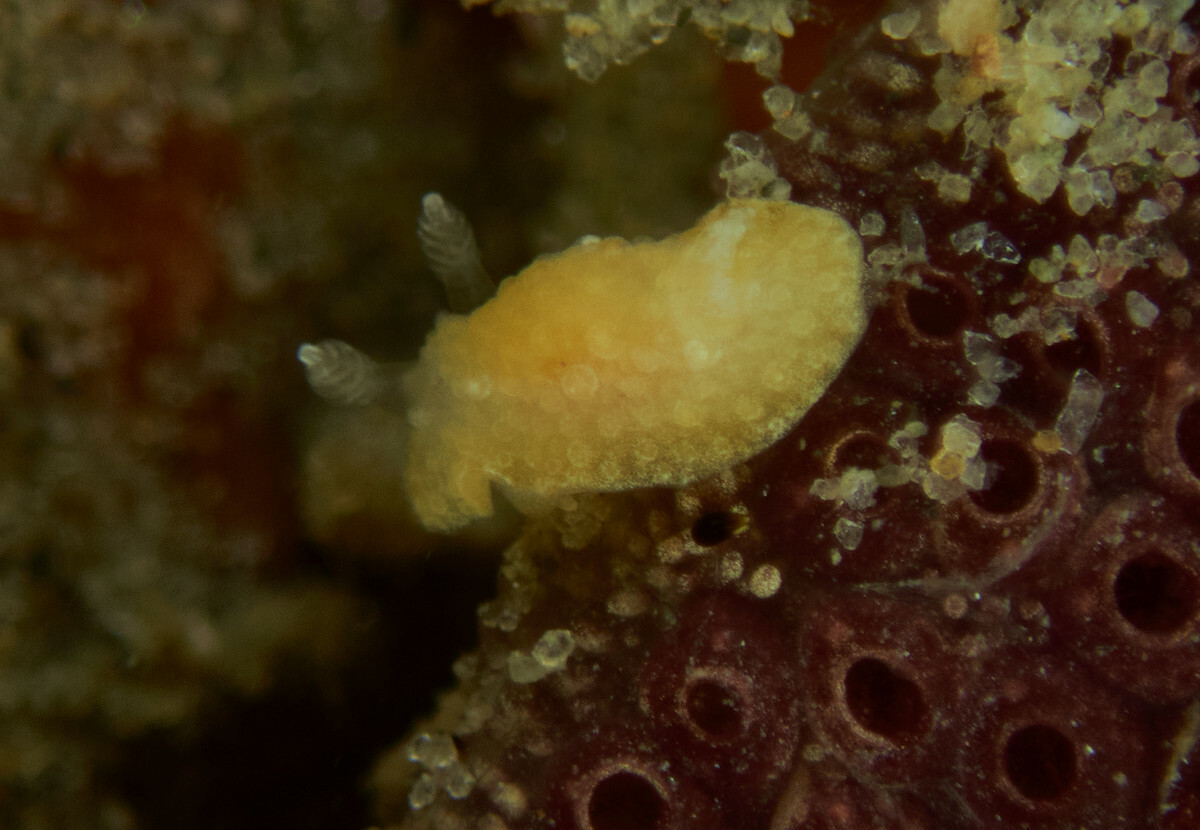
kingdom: Animalia
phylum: Mollusca
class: Gastropoda
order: Nudibranchia
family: Discodorididae
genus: Carminodoris
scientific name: Carminodoris nodulosa
